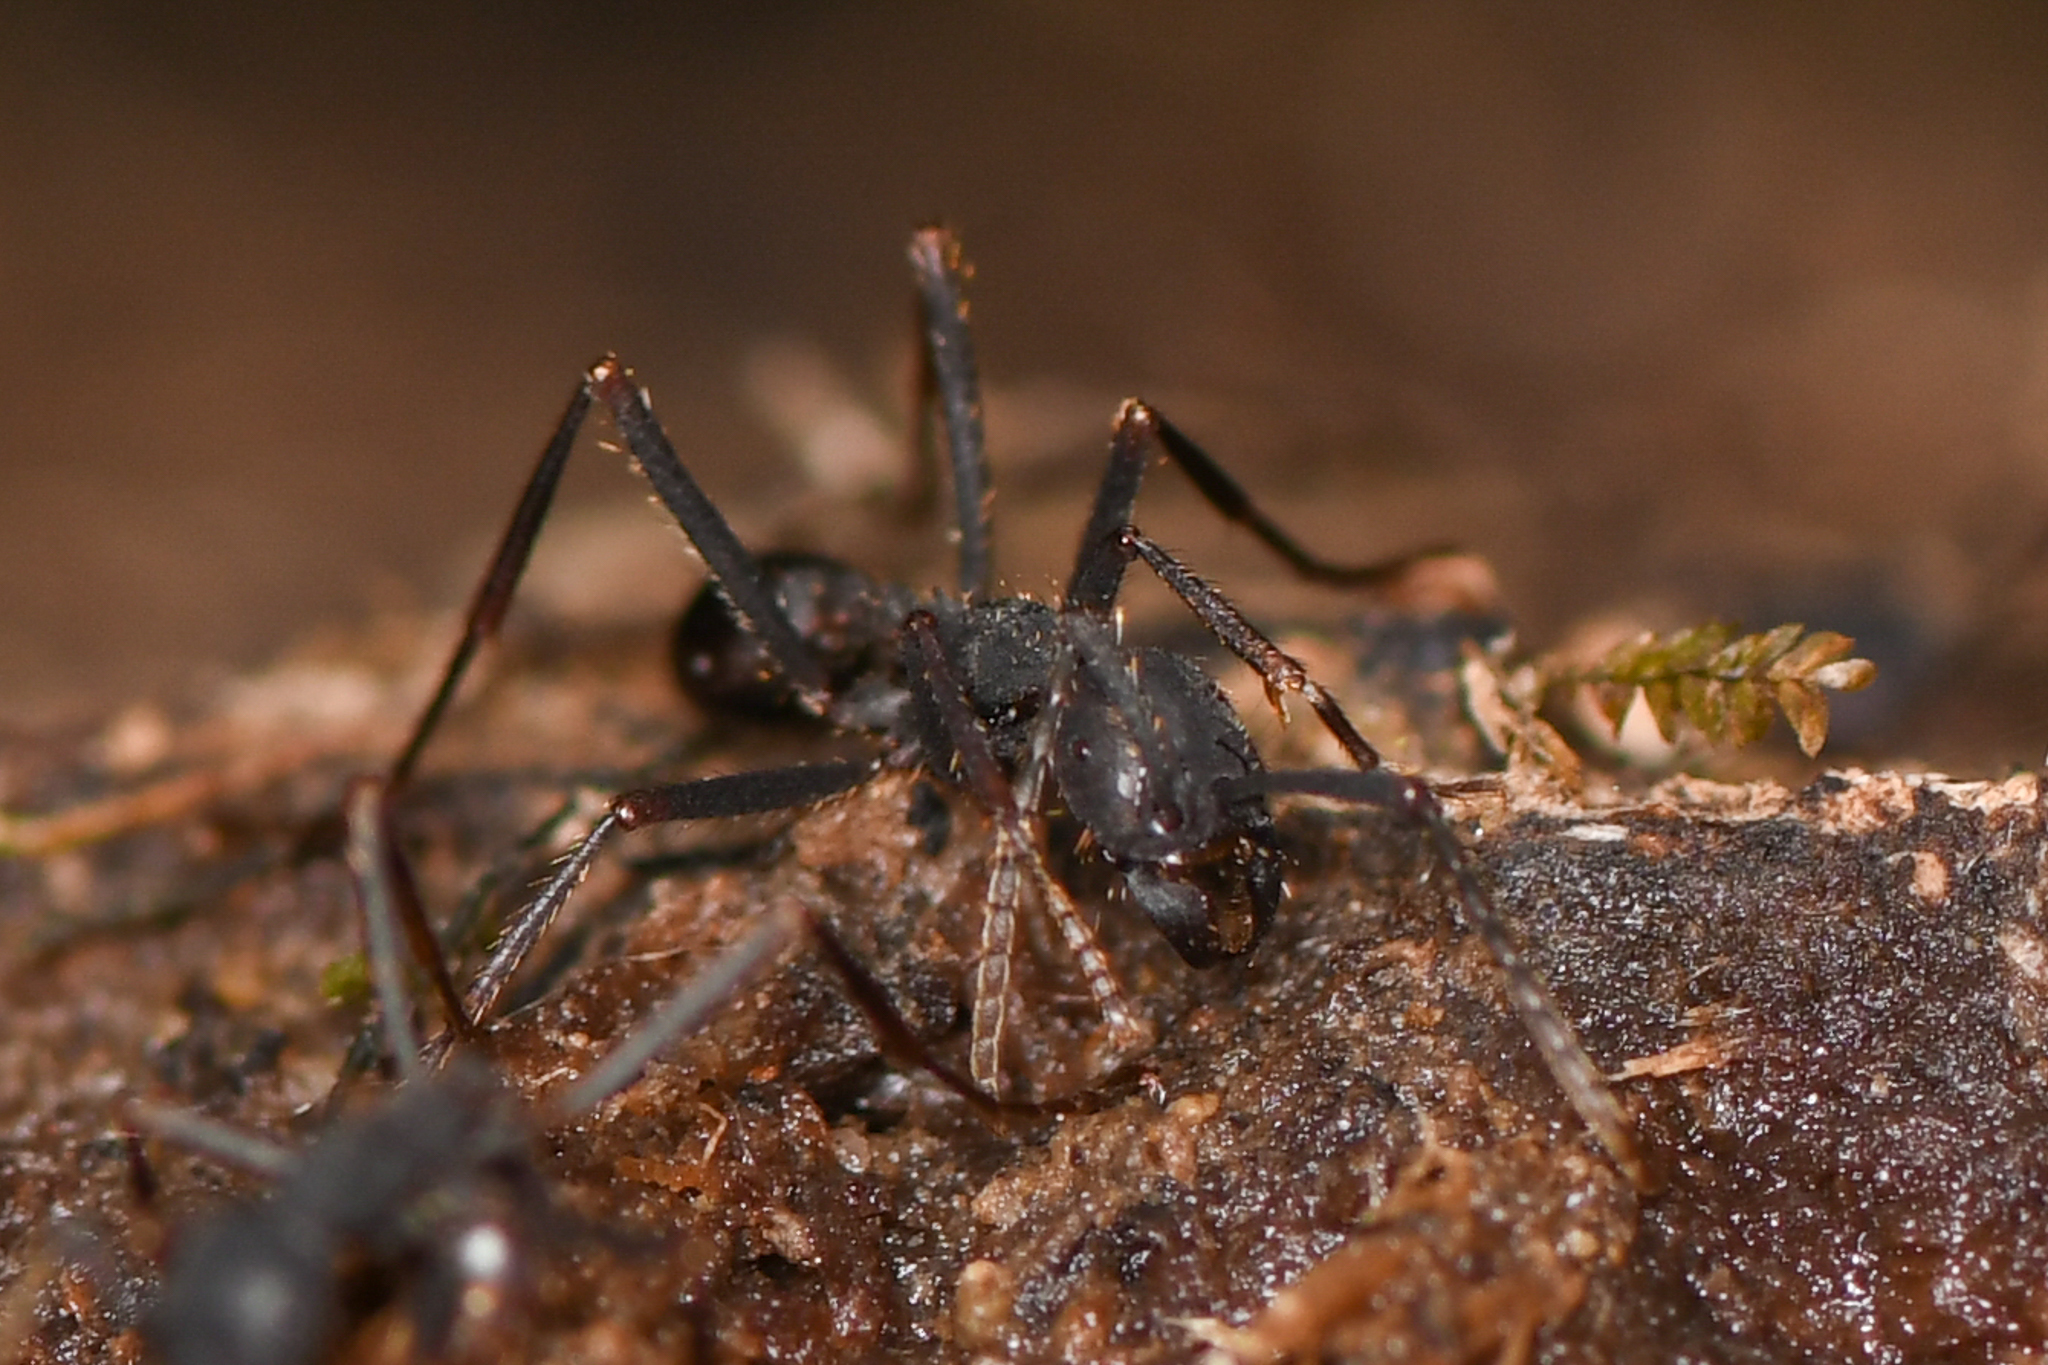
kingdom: Animalia
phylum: Arthropoda
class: Insecta
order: Hymenoptera
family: Formicidae
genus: Eciton
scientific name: Eciton burchellii
